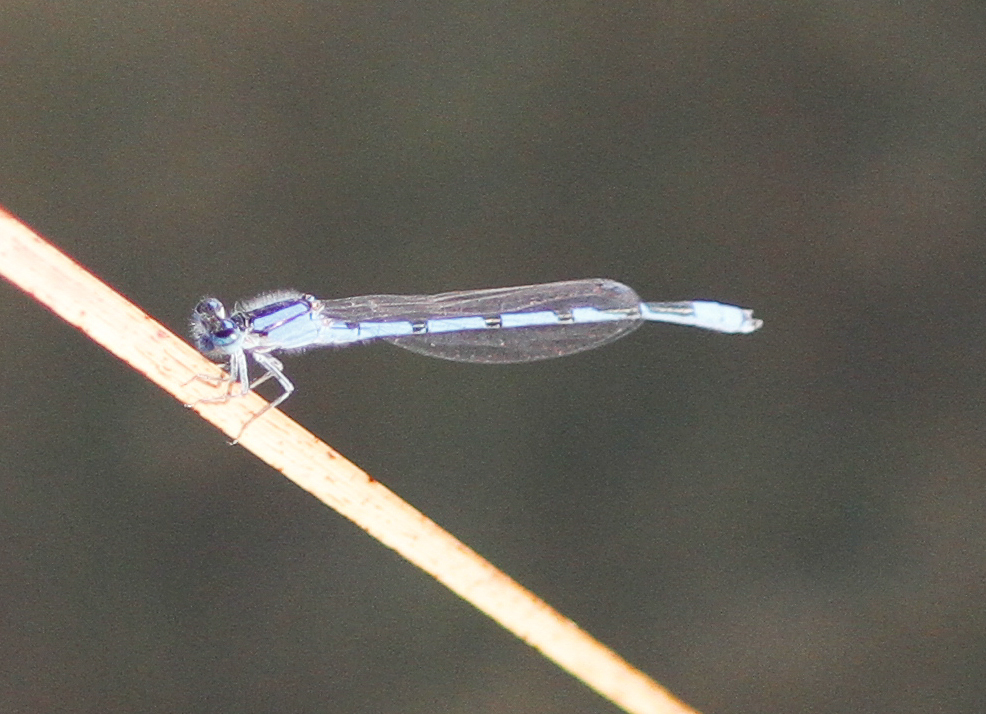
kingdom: Animalia
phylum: Arthropoda
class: Insecta
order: Odonata
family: Coenagrionidae
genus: Enallagma
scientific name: Enallagma civile
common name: Damselfly
